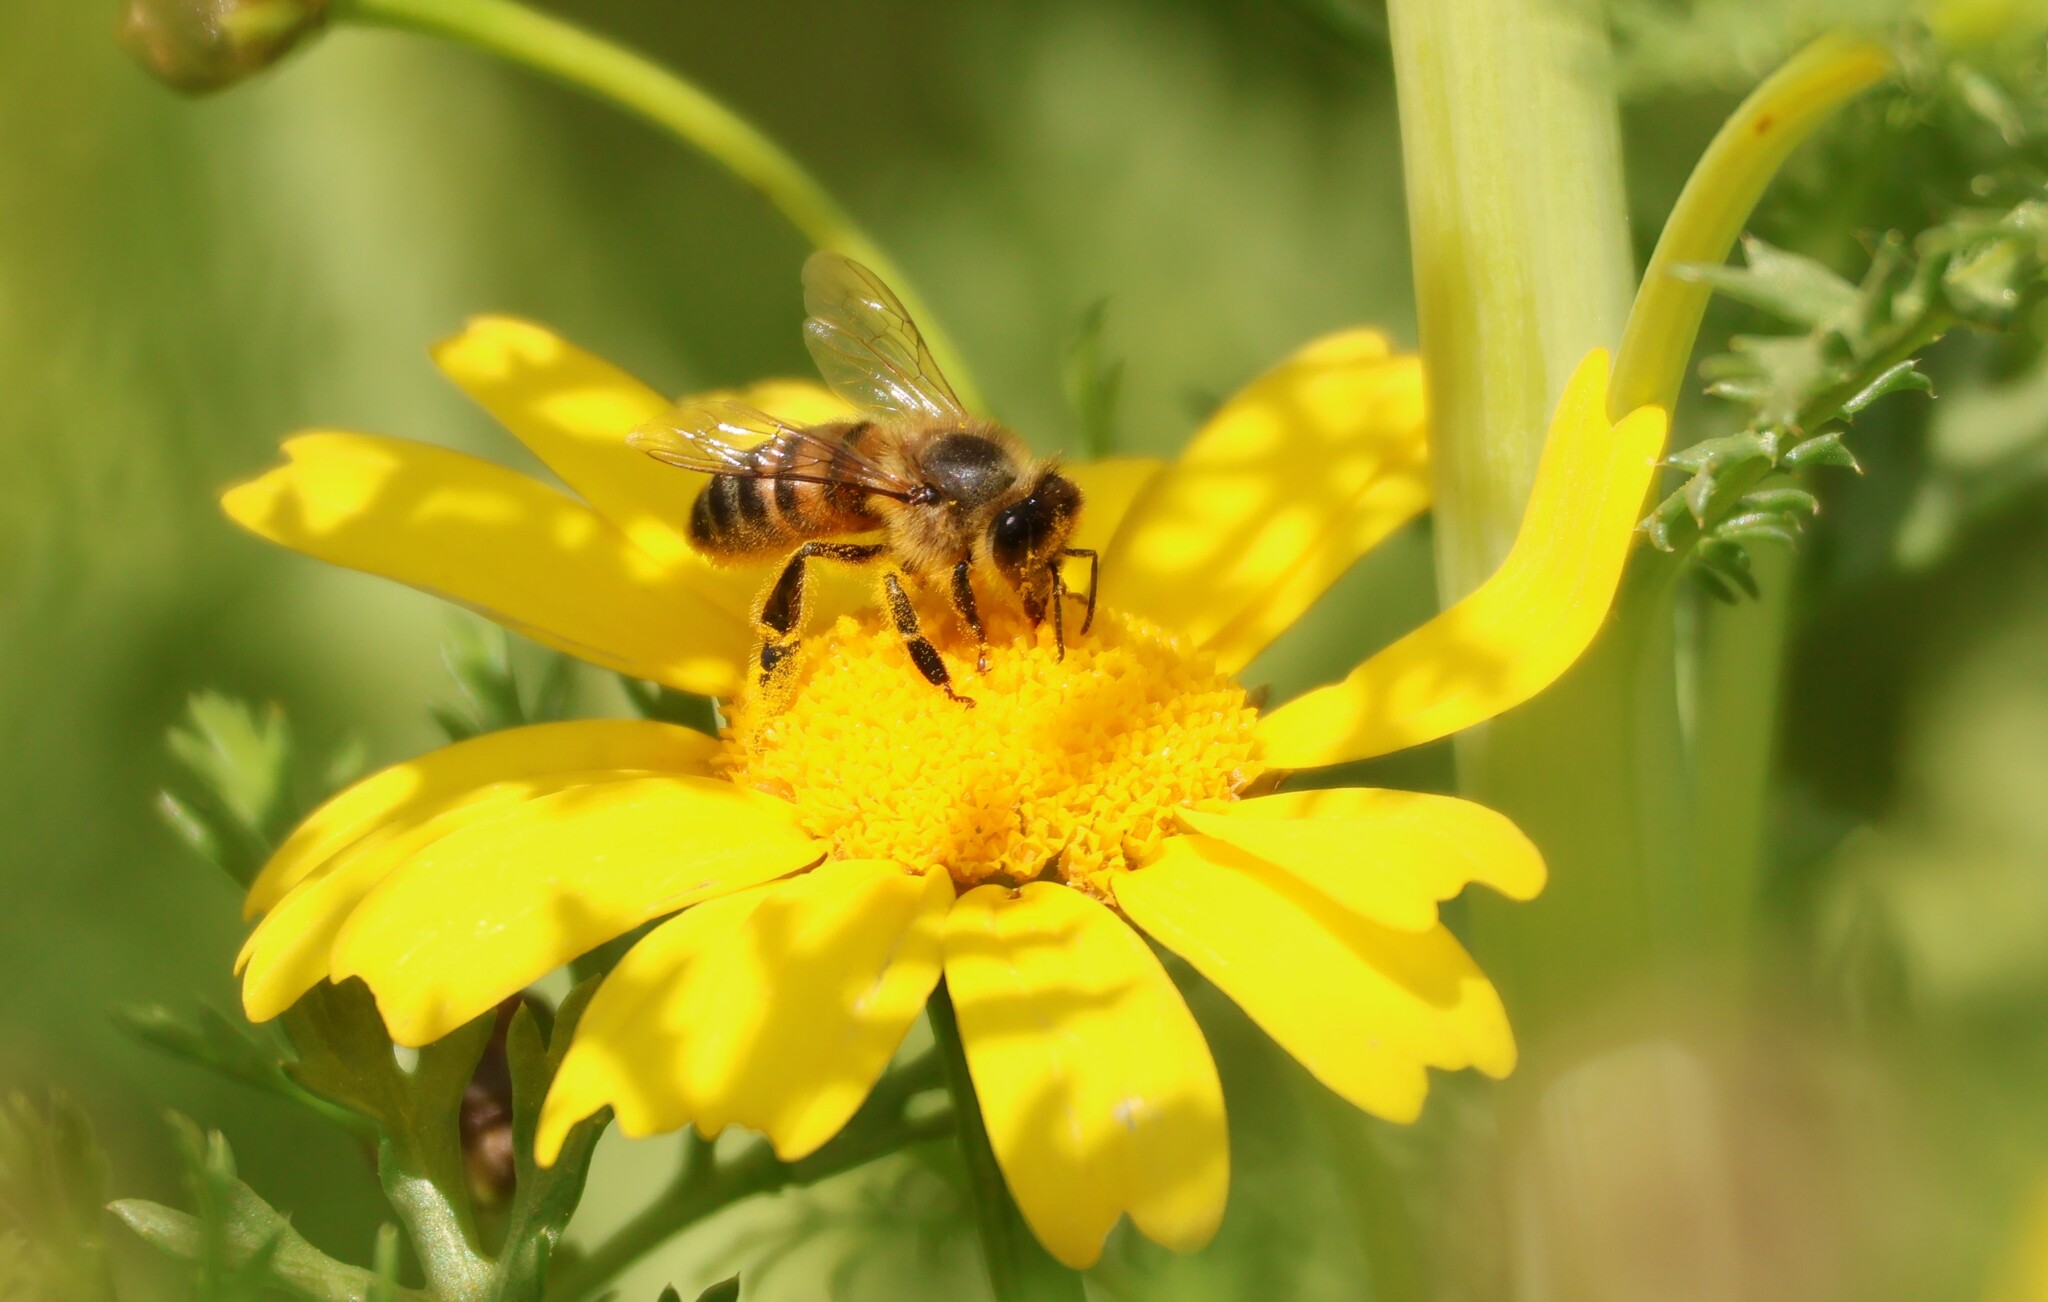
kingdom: Animalia
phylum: Arthropoda
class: Insecta
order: Hymenoptera
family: Apidae
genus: Apis
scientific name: Apis mellifera
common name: Honey bee
